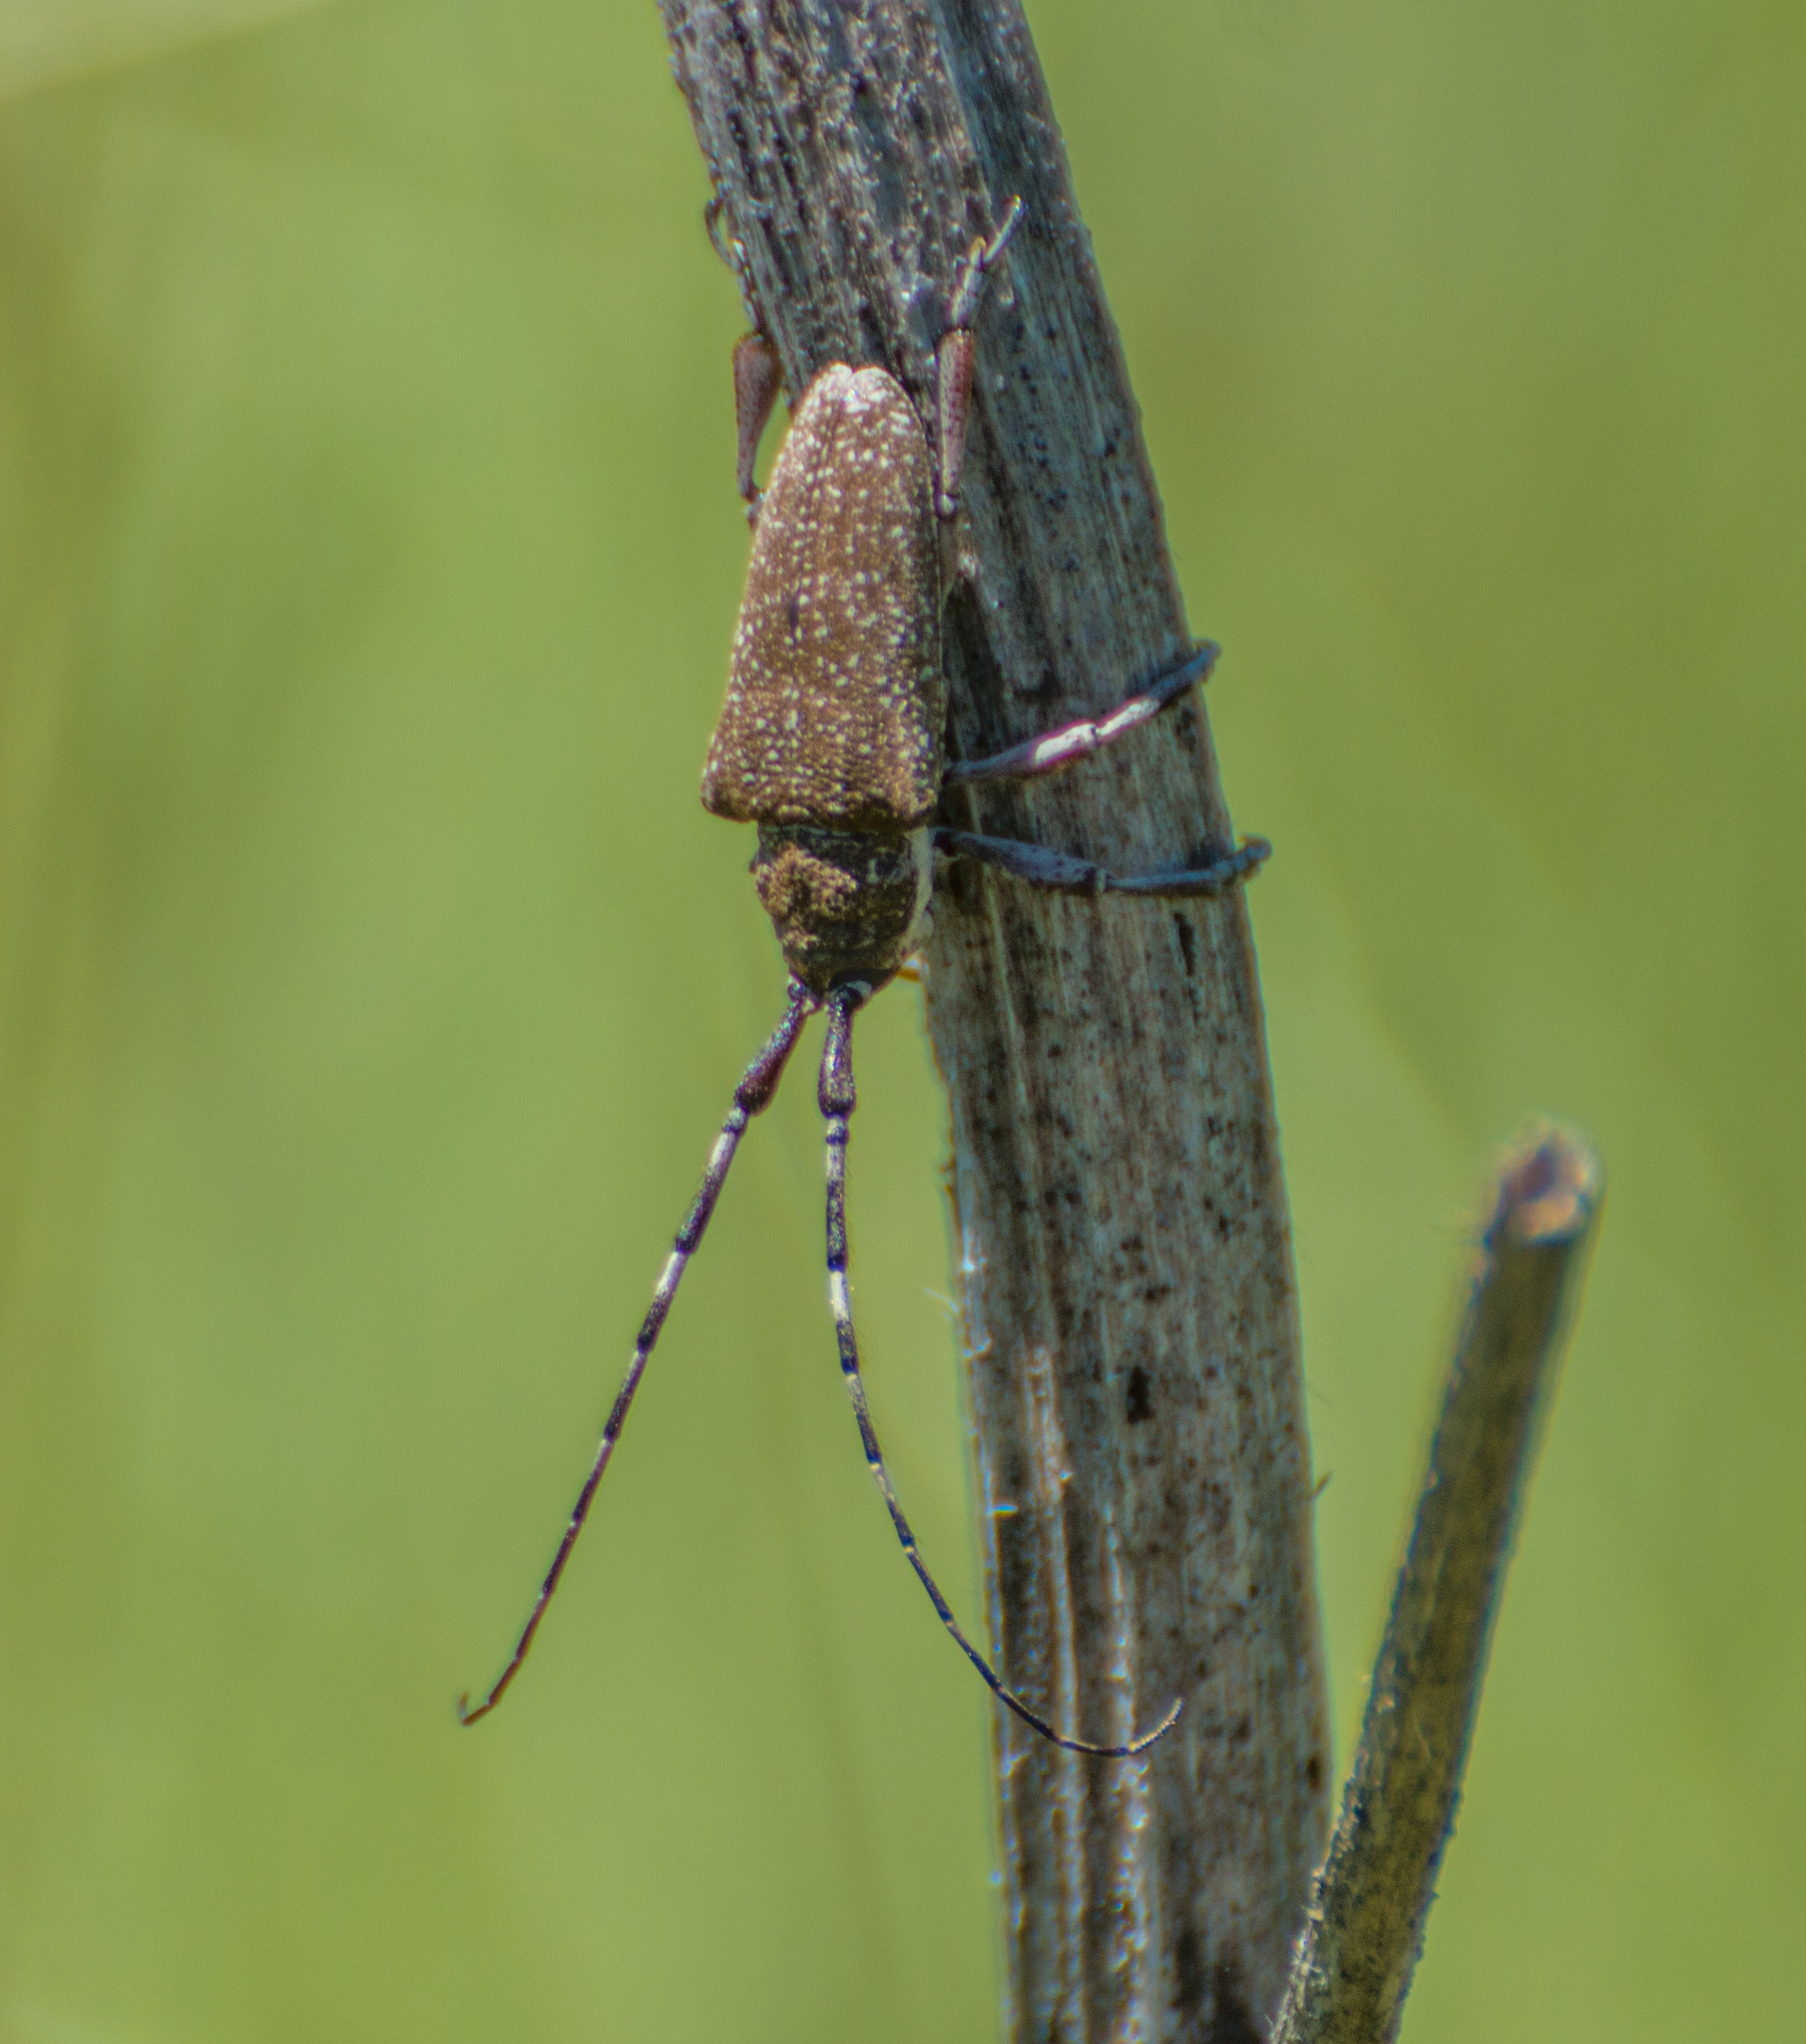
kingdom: Animalia
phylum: Arthropoda
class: Insecta
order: Coleoptera
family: Cerambycidae
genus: Neodillonia
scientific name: Neodillonia albisparsa
